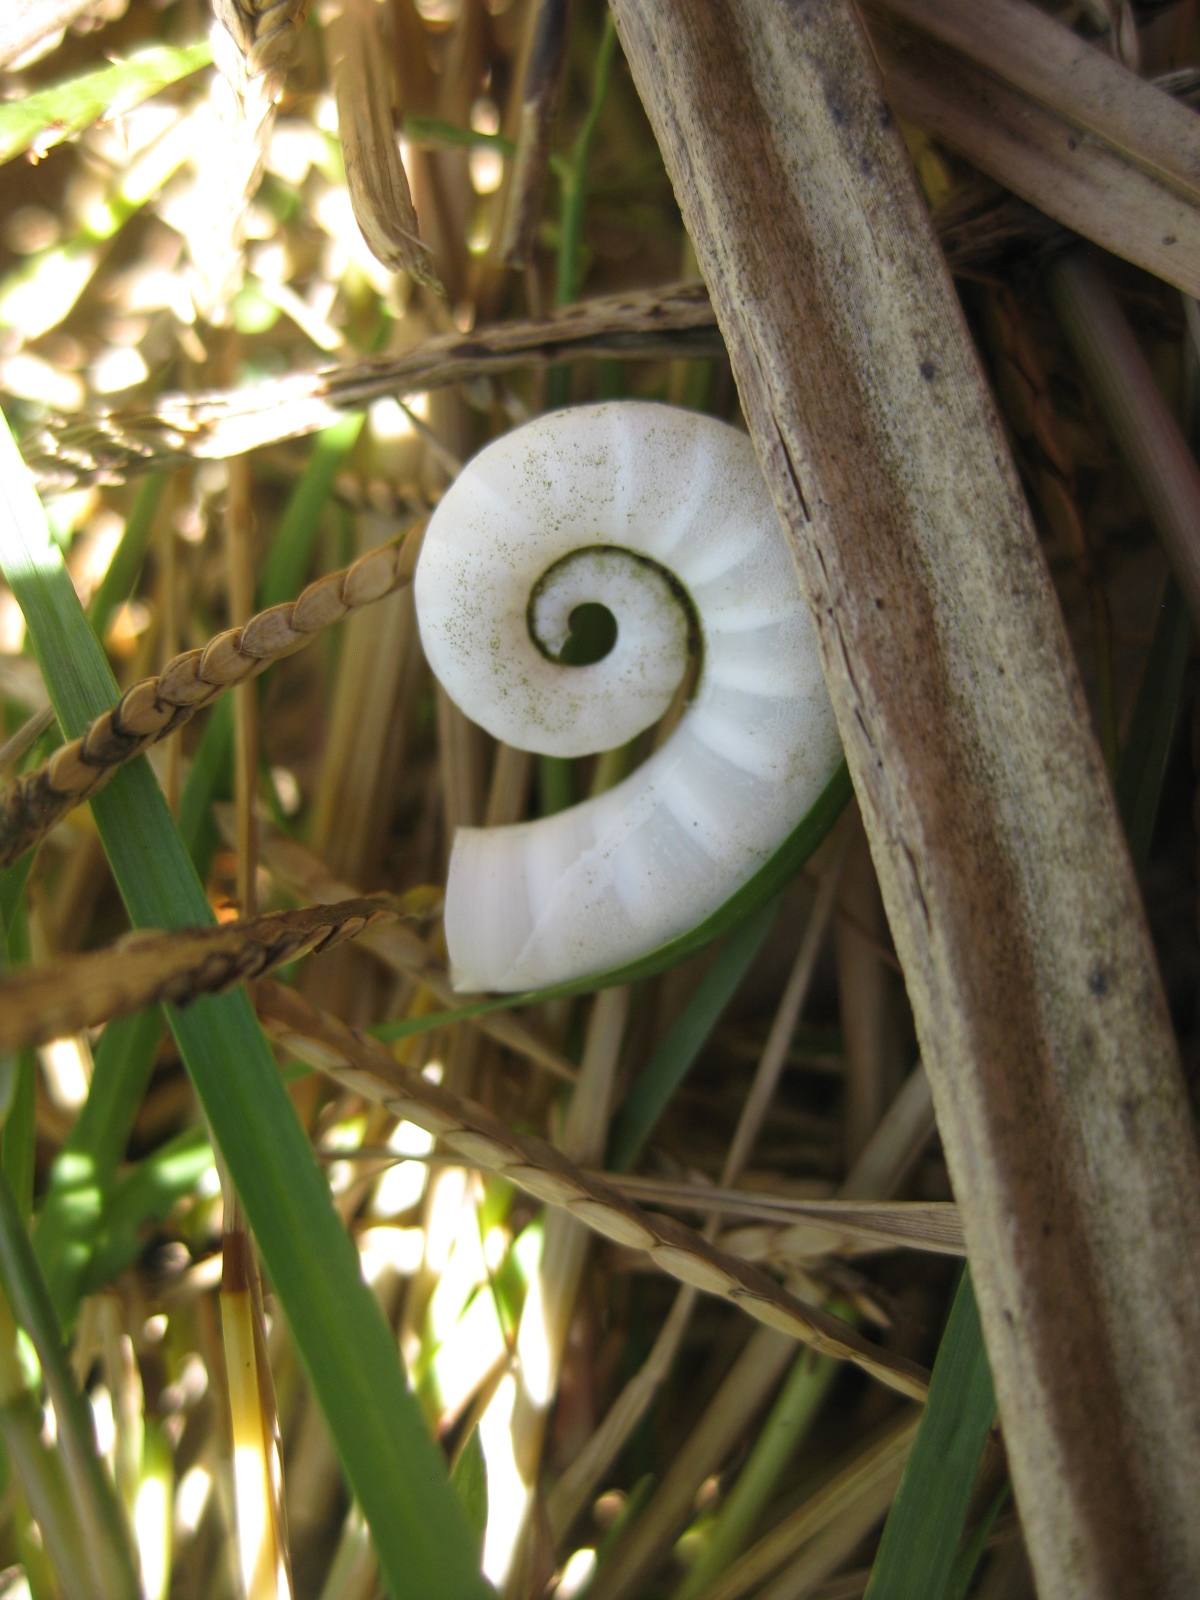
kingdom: Animalia
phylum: Mollusca
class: Cephalopoda
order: Spirulida
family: Spirulidae
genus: Spirula
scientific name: Spirula spirula
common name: Ram's horn squid
